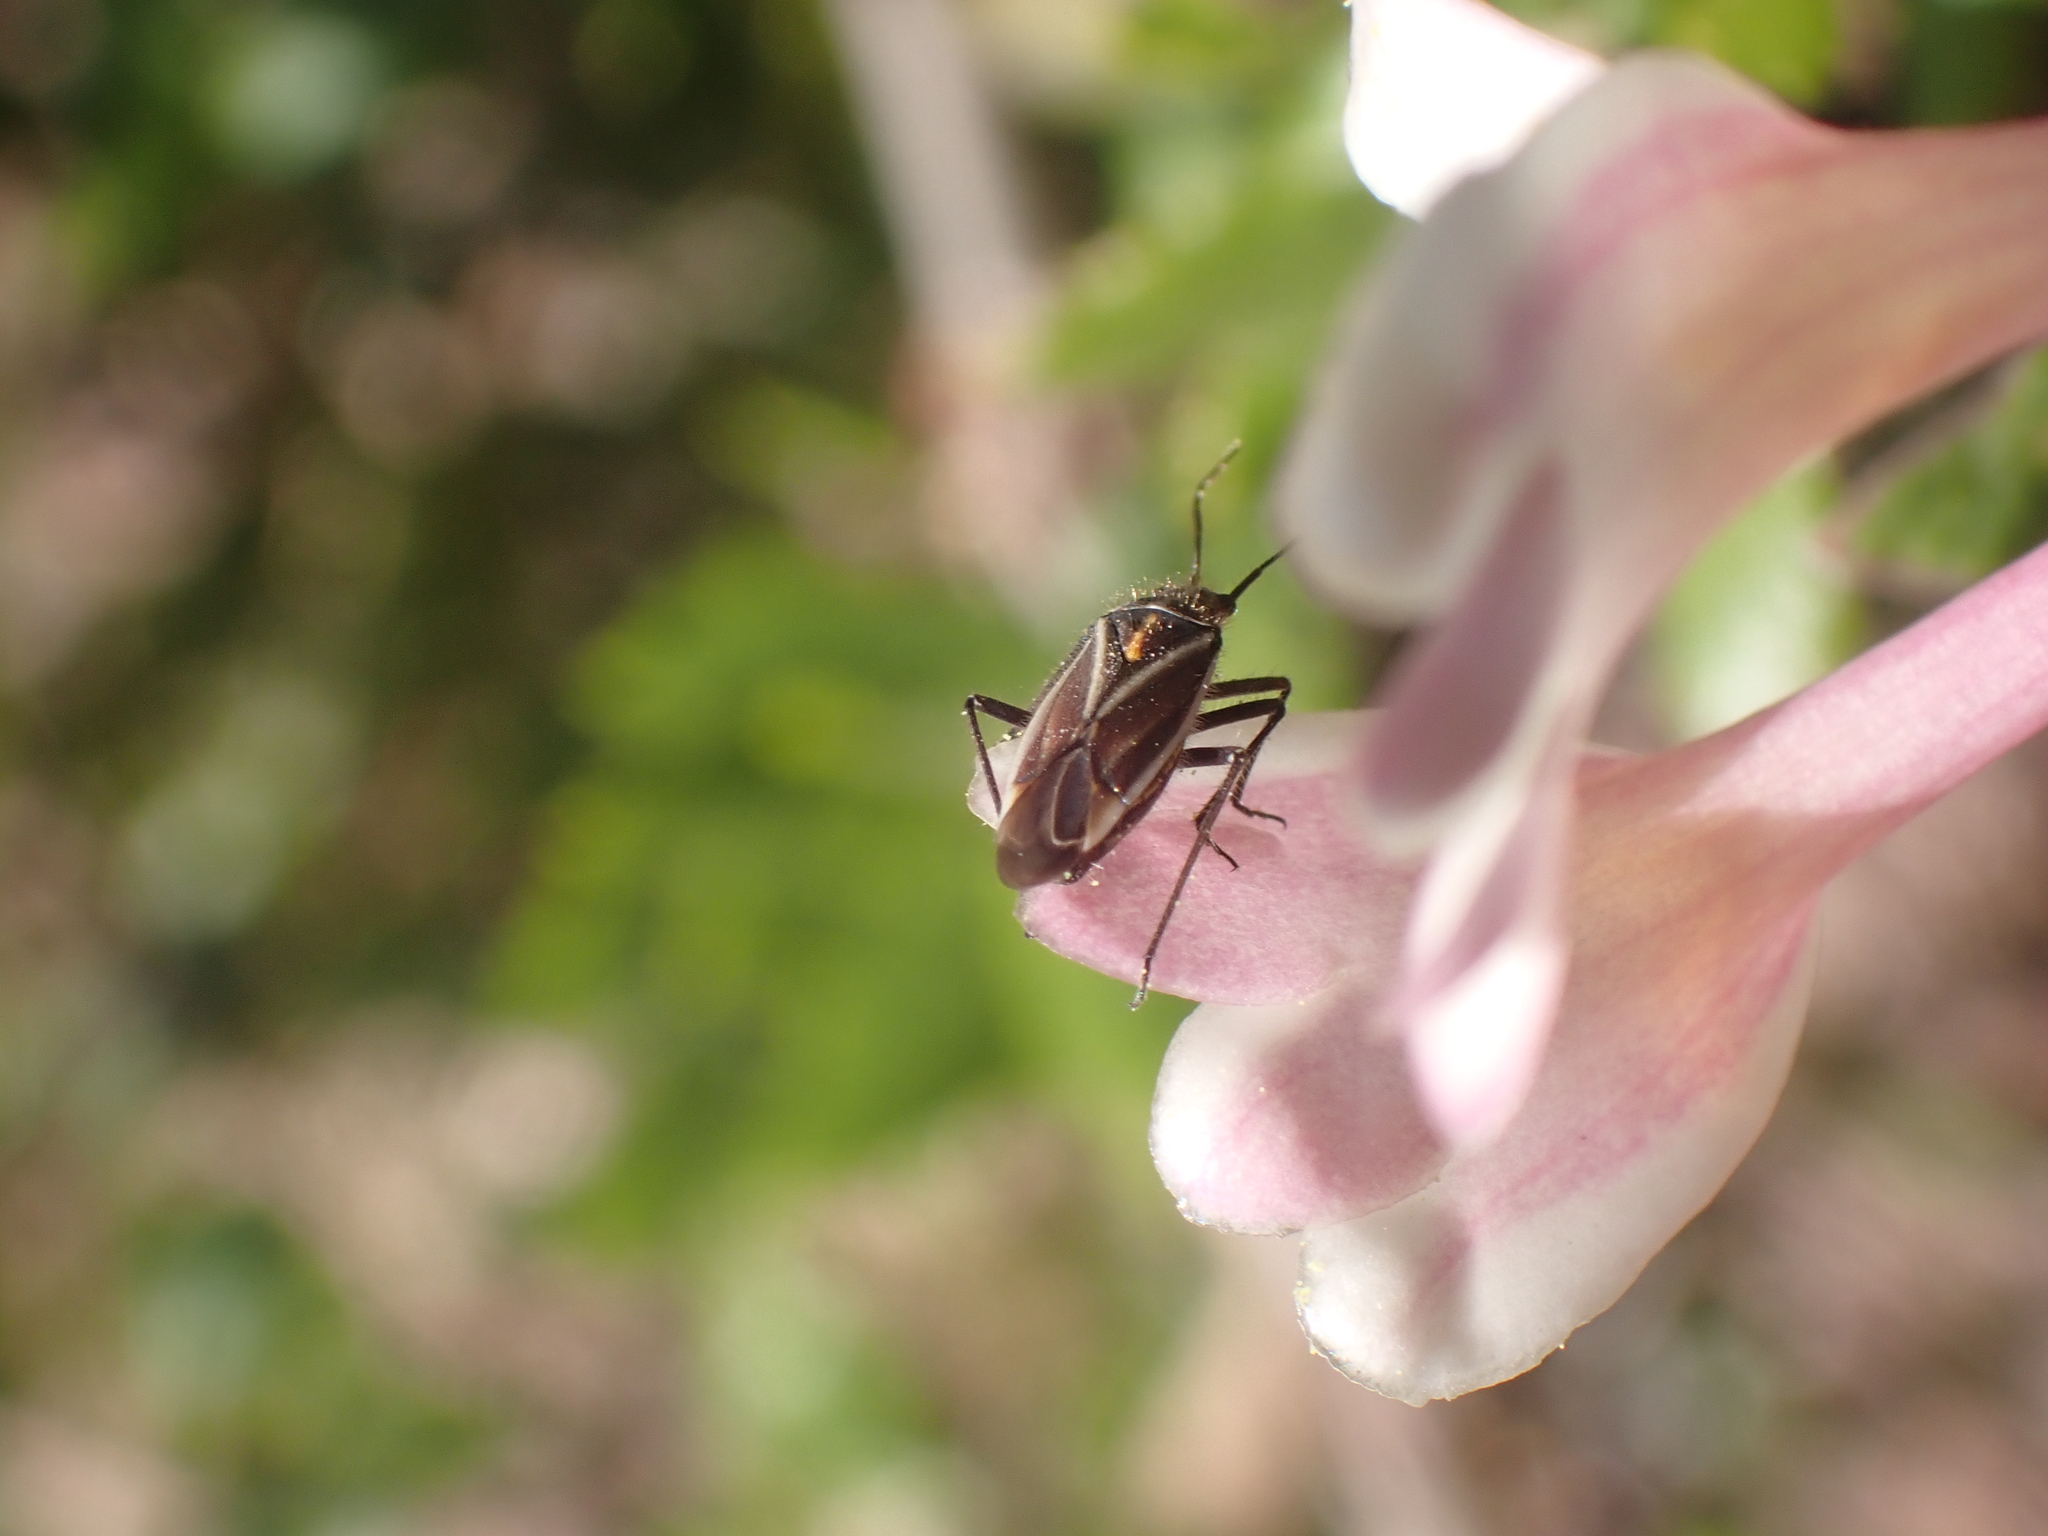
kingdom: Animalia
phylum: Arthropoda
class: Insecta
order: Hemiptera
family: Miridae
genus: Horistus
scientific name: Horistus orientalis
